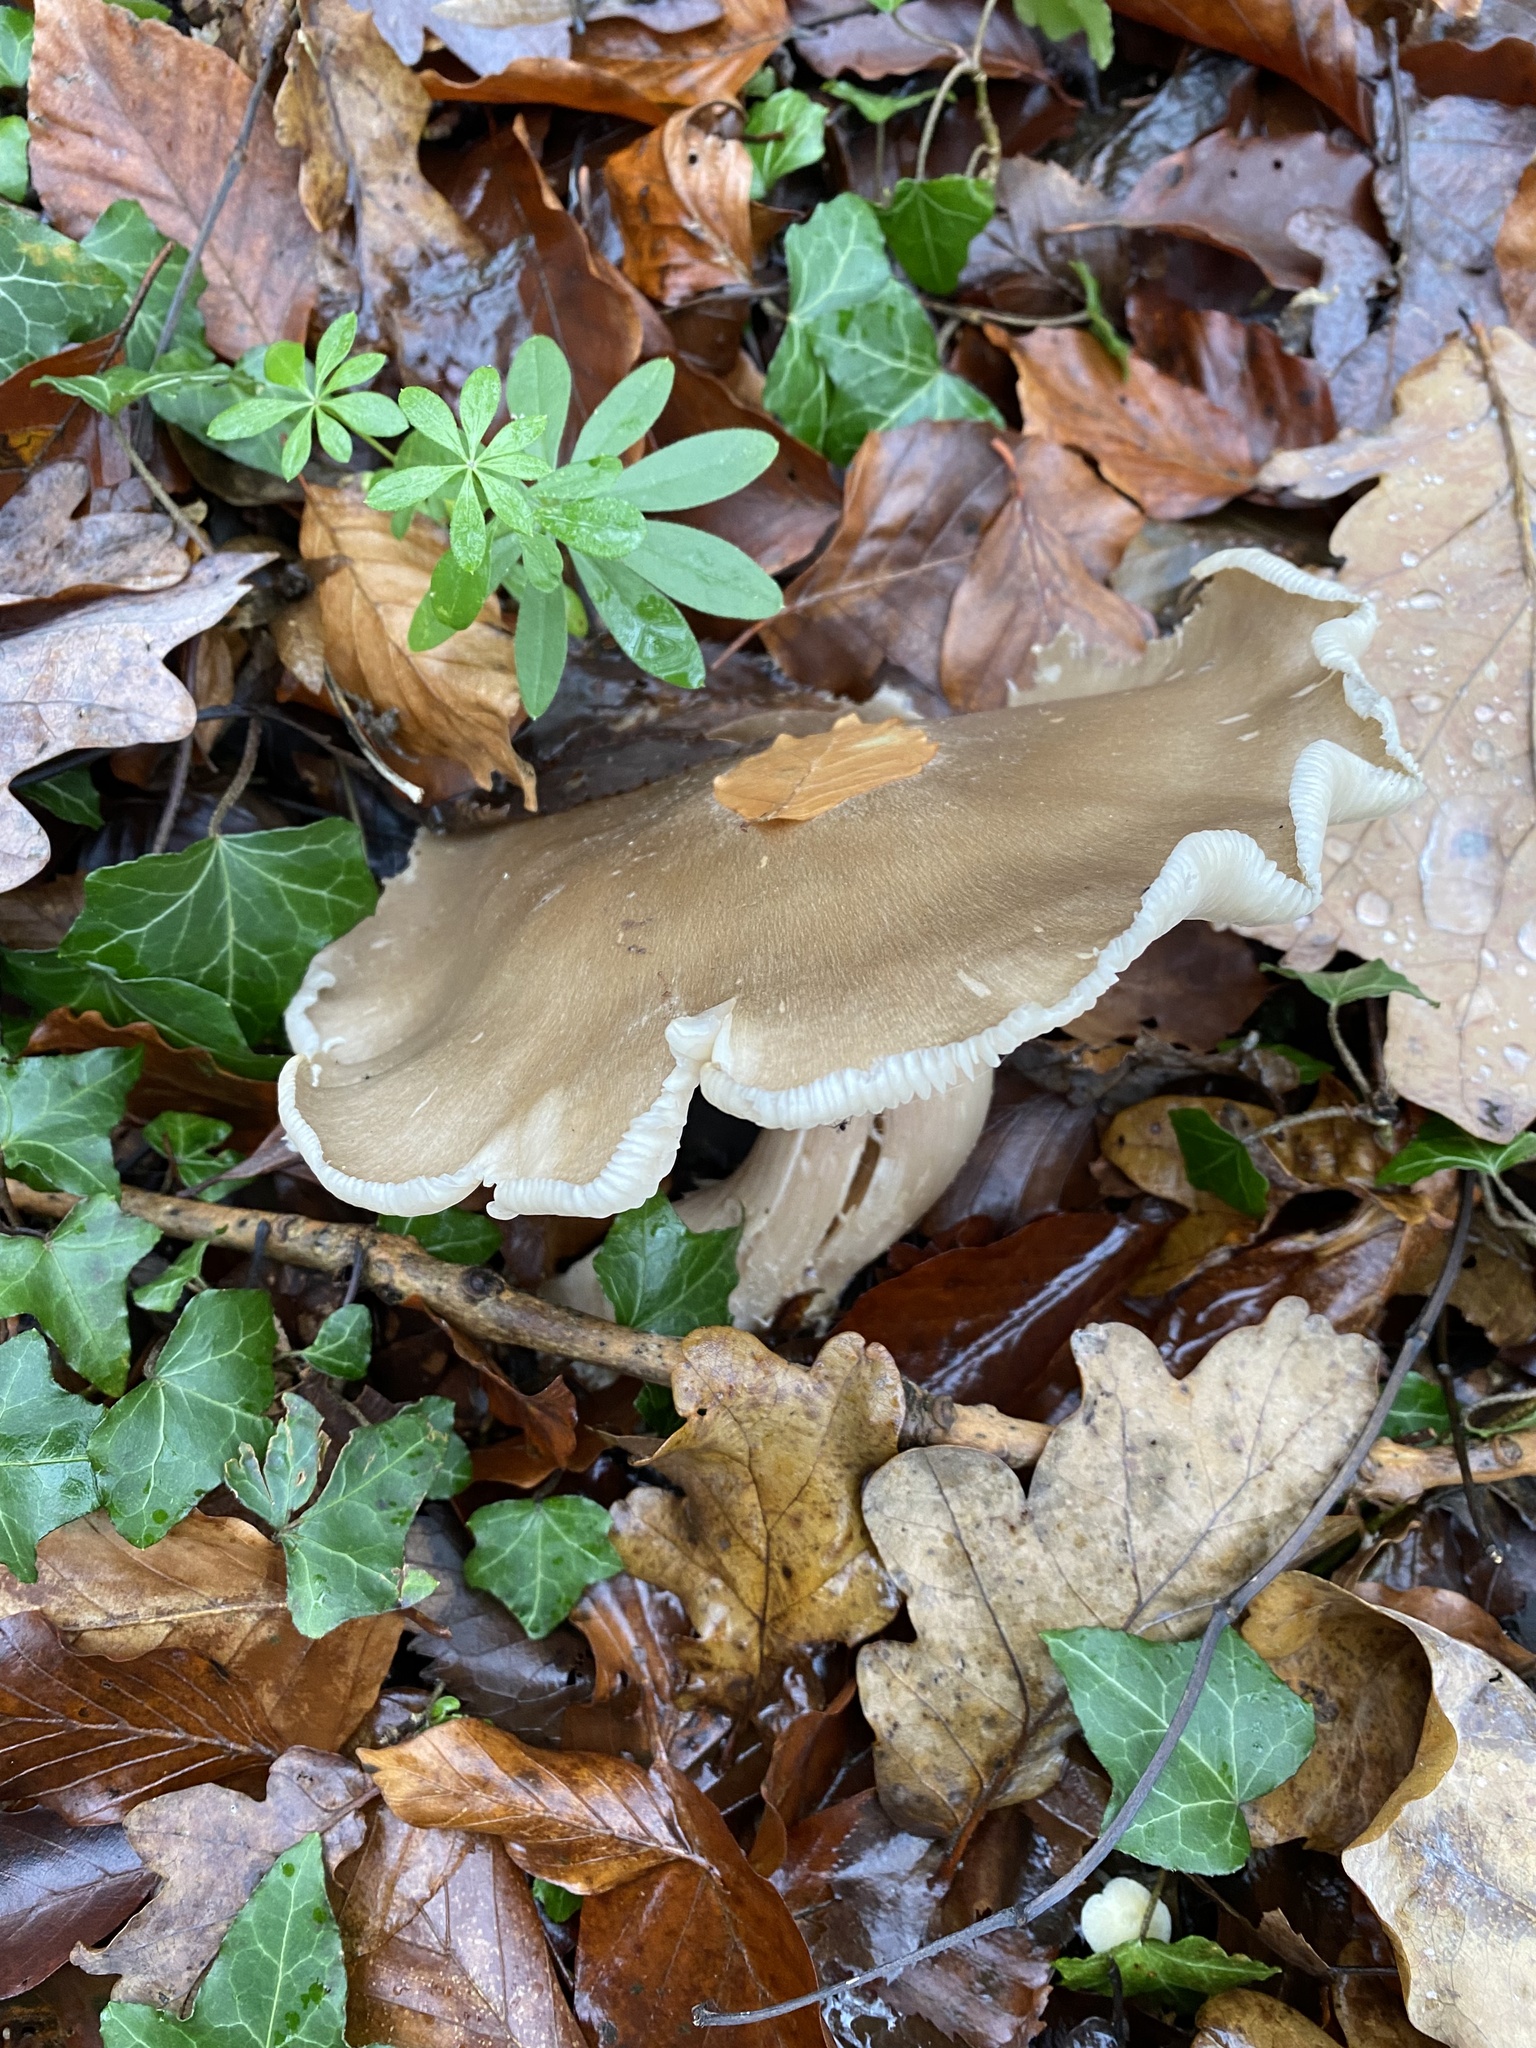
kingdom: Fungi
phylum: Basidiomycota
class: Agaricomycetes
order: Agaricales
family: Tricholomataceae
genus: Clitocybe
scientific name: Clitocybe nebularis
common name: Clouded agaric
